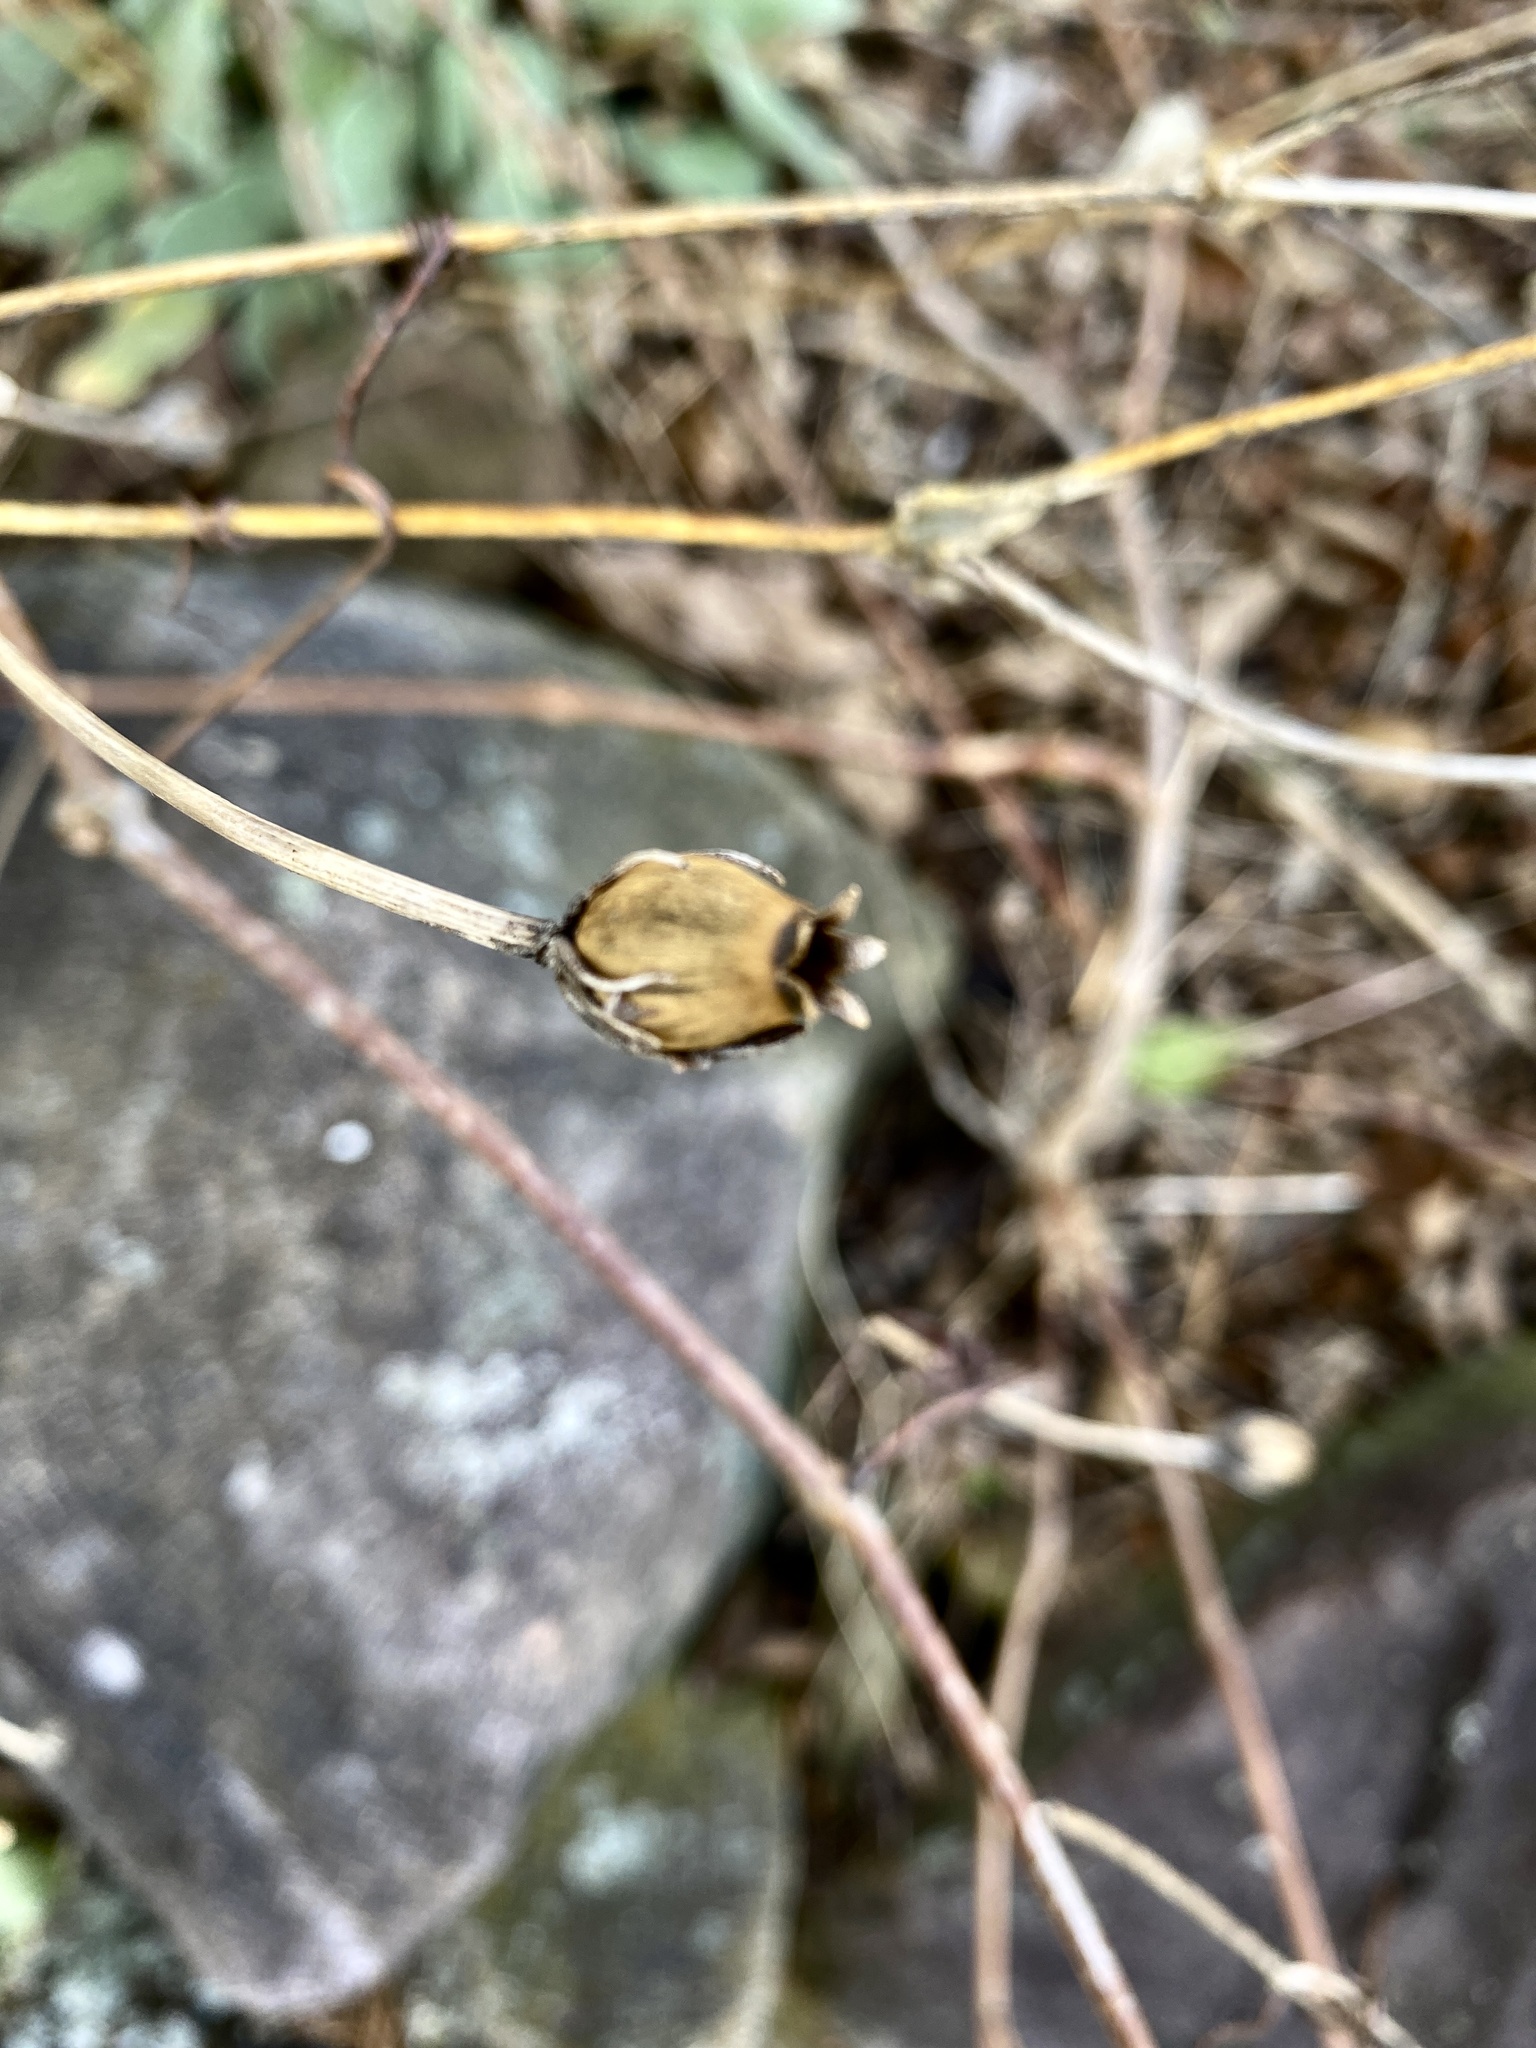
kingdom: Plantae
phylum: Tracheophyta
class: Magnoliopsida
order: Caryophyllales
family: Caryophyllaceae
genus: Silene
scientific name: Silene coronaria
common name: Rose campion
